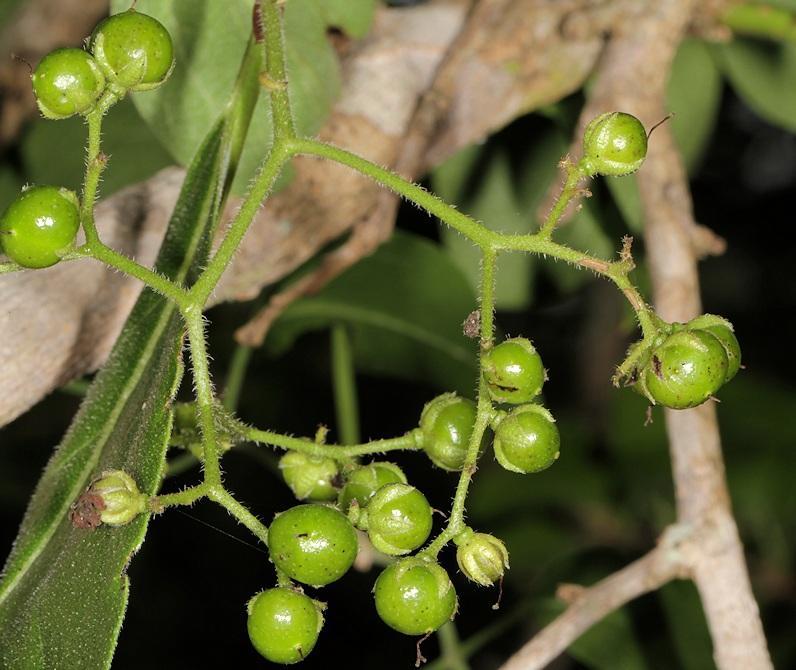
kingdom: Plantae
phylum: Tracheophyta
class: Magnoliopsida
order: Boraginales
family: Ehretiaceae
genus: Ehretia
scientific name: Ehretia amoena
